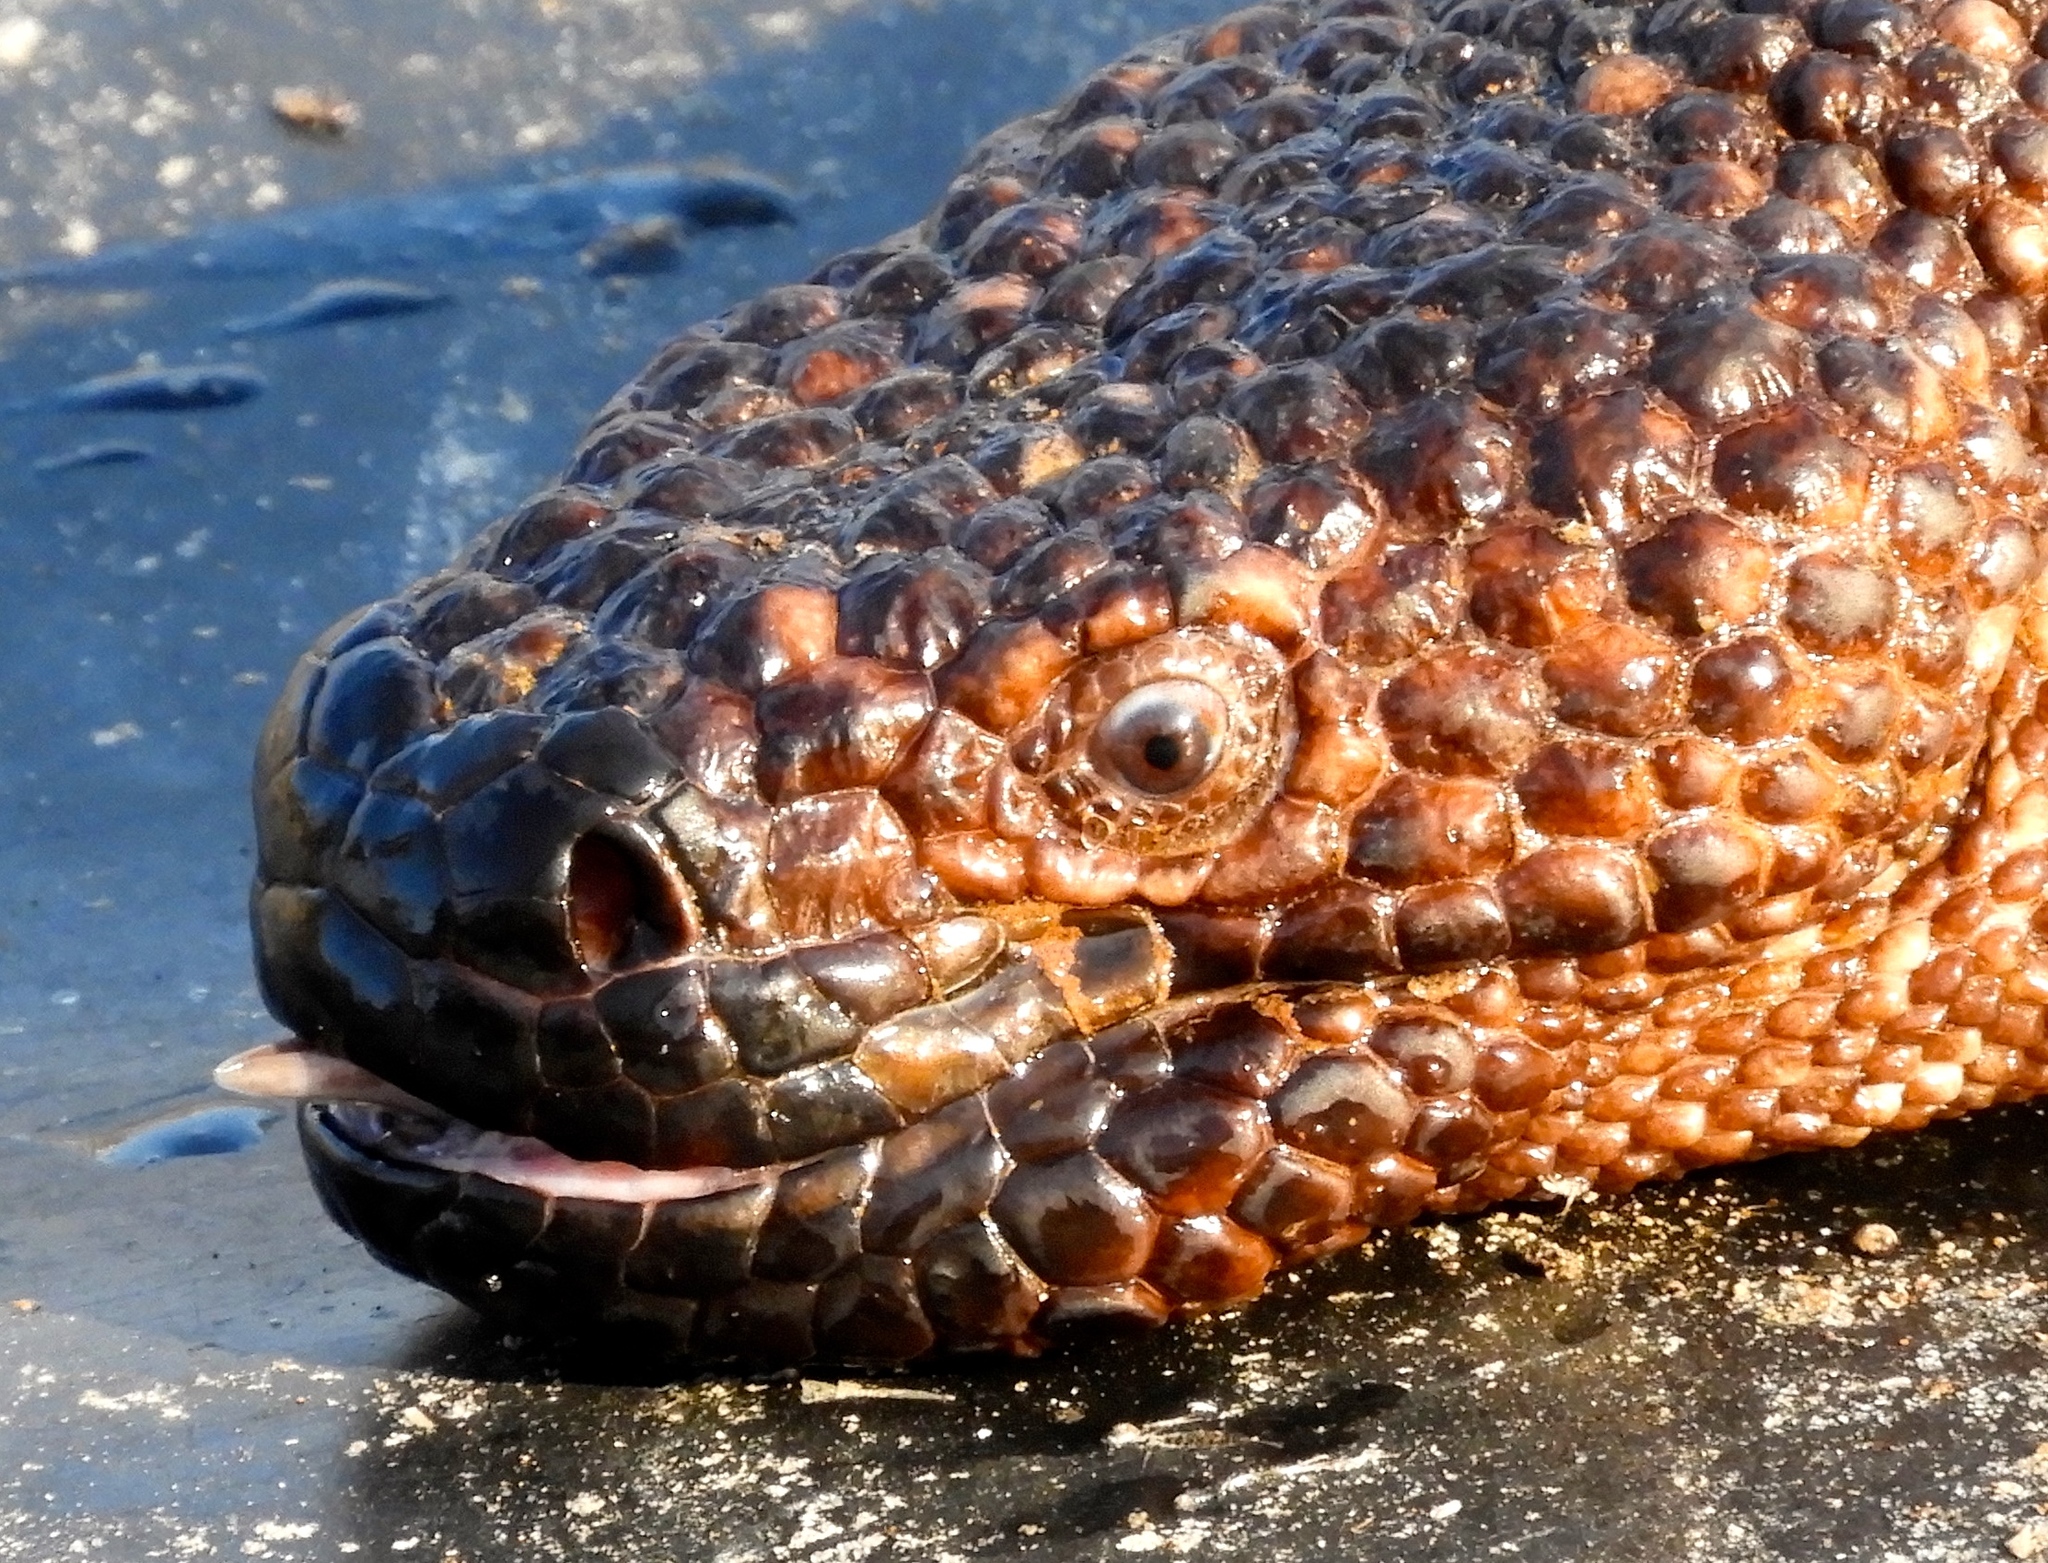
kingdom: Animalia
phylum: Chordata
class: Squamata
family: Helodermatidae
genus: Heloderma
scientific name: Heloderma horridum
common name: Mexican beaded lizard
